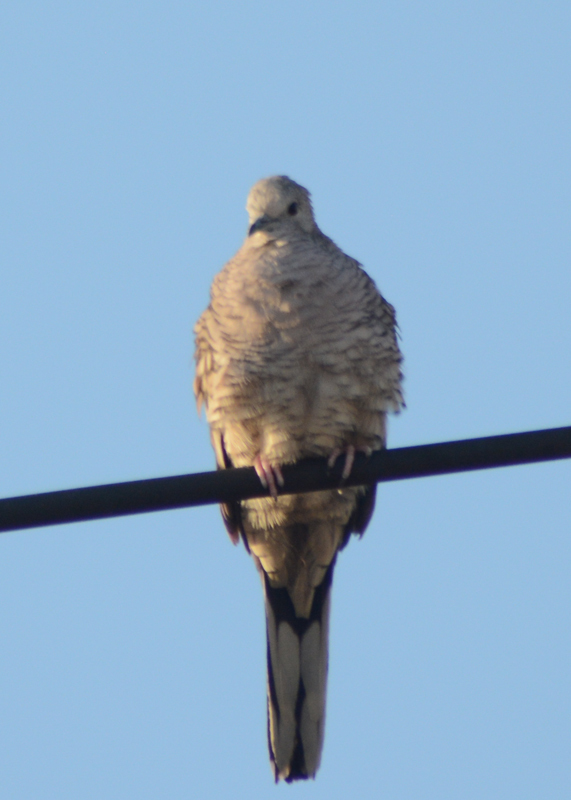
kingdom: Animalia
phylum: Chordata
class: Aves
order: Columbiformes
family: Columbidae
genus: Columbina
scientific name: Columbina inca
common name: Inca dove
